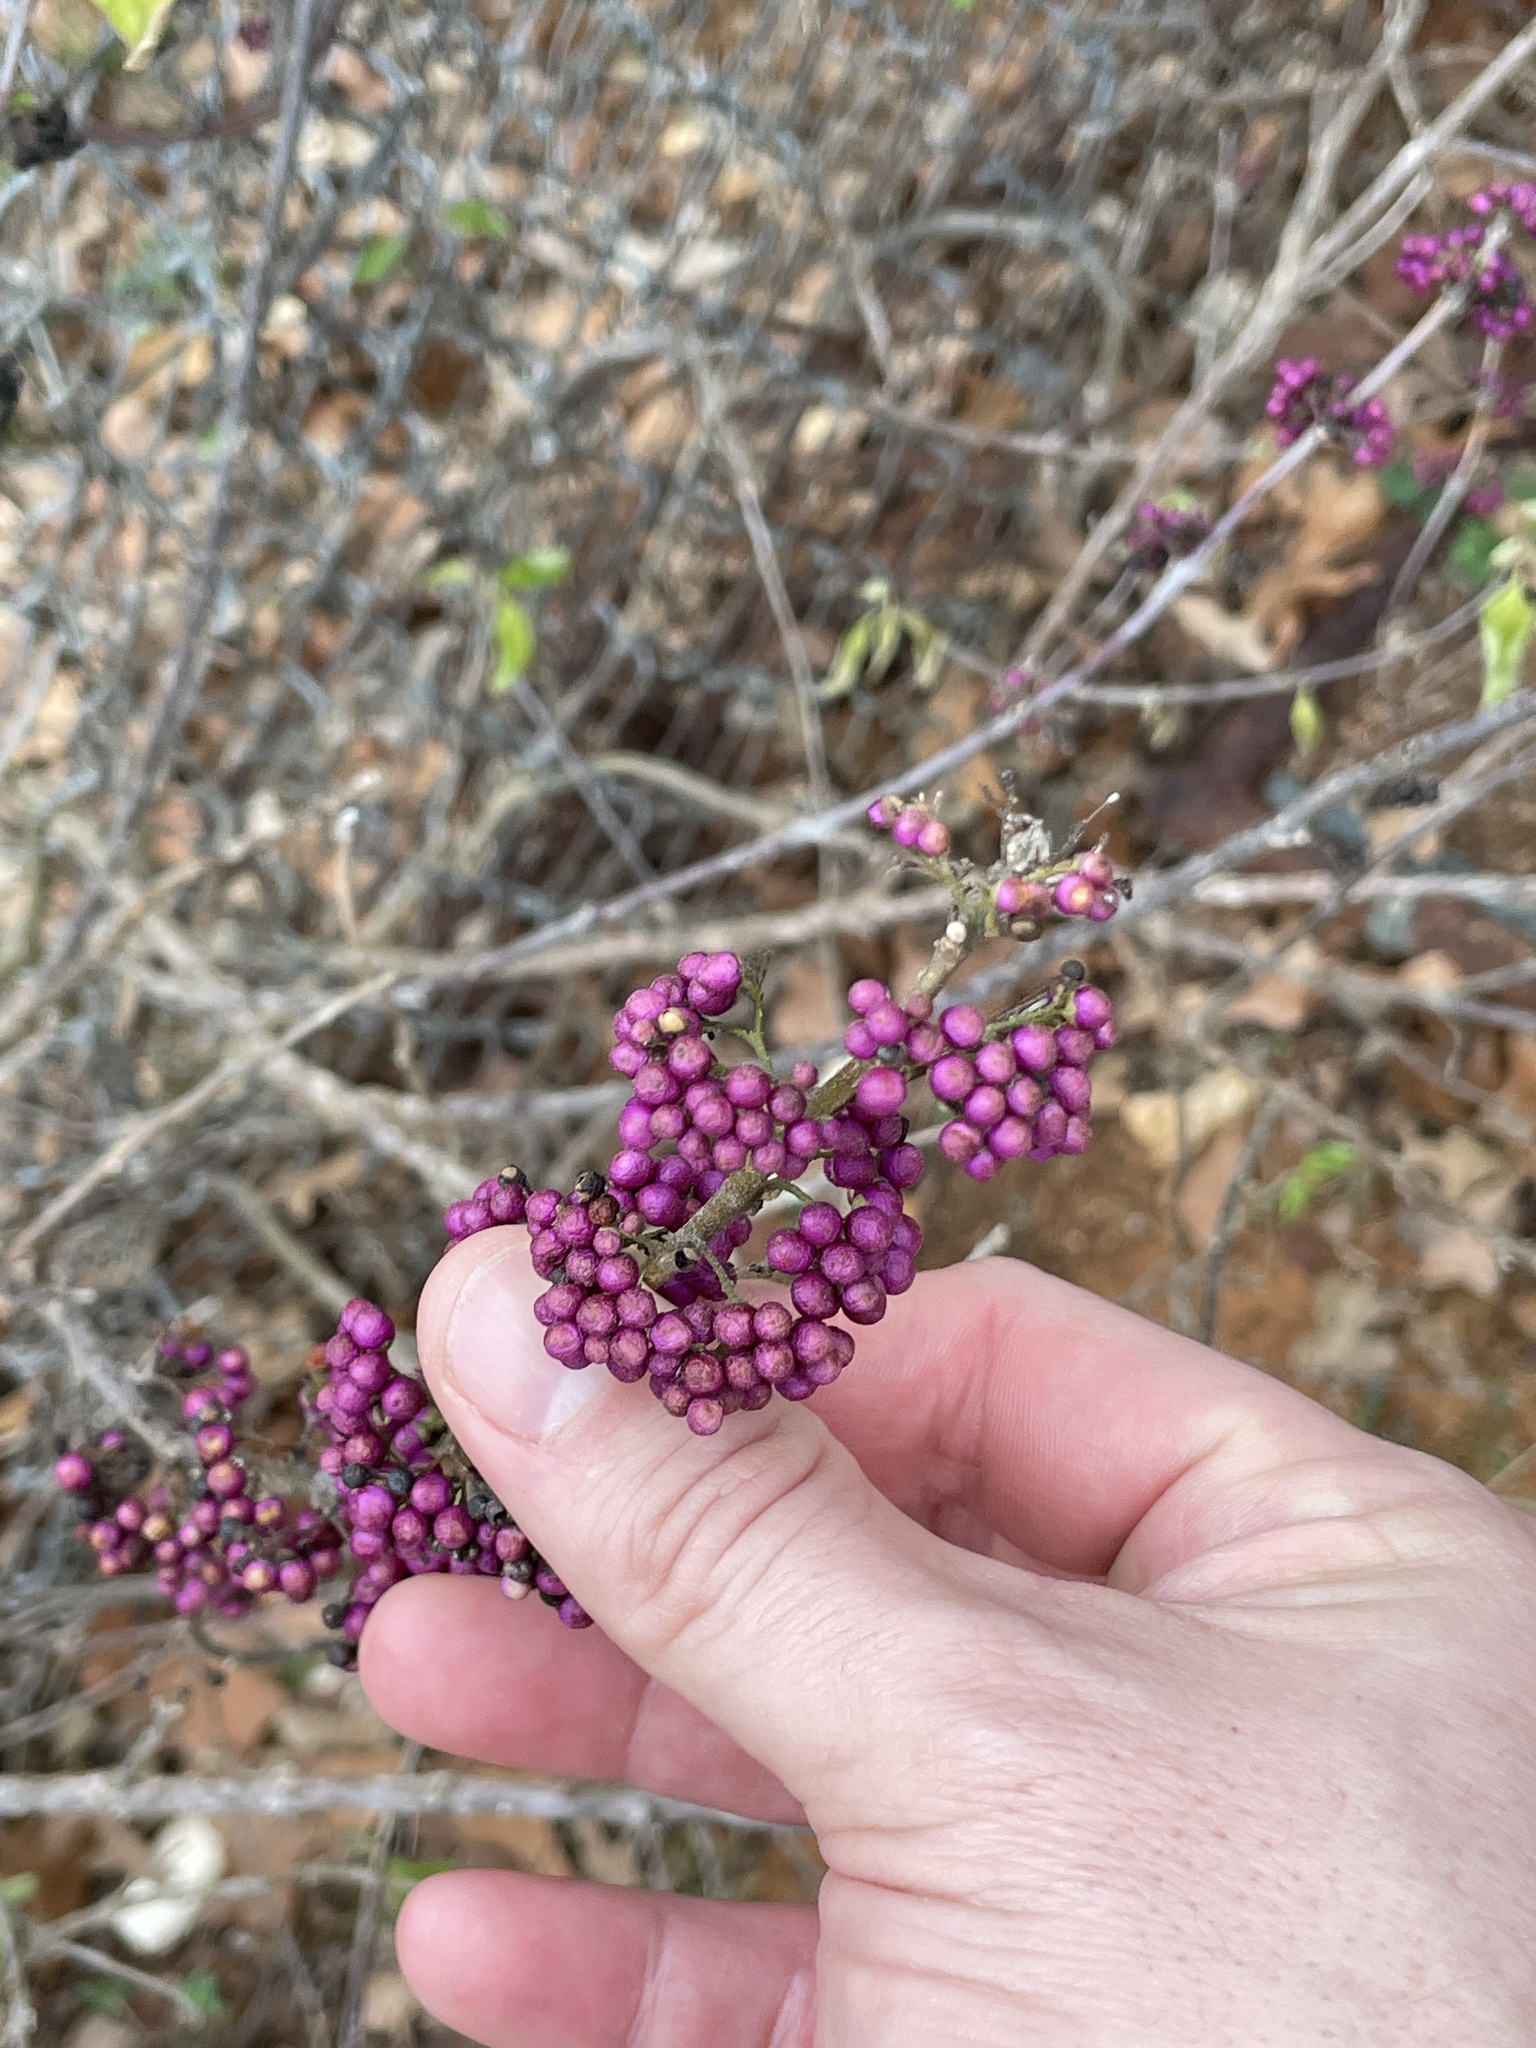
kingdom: Plantae
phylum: Tracheophyta
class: Magnoliopsida
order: Lamiales
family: Lamiaceae
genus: Callicarpa
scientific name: Callicarpa americana
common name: American beautyberry
